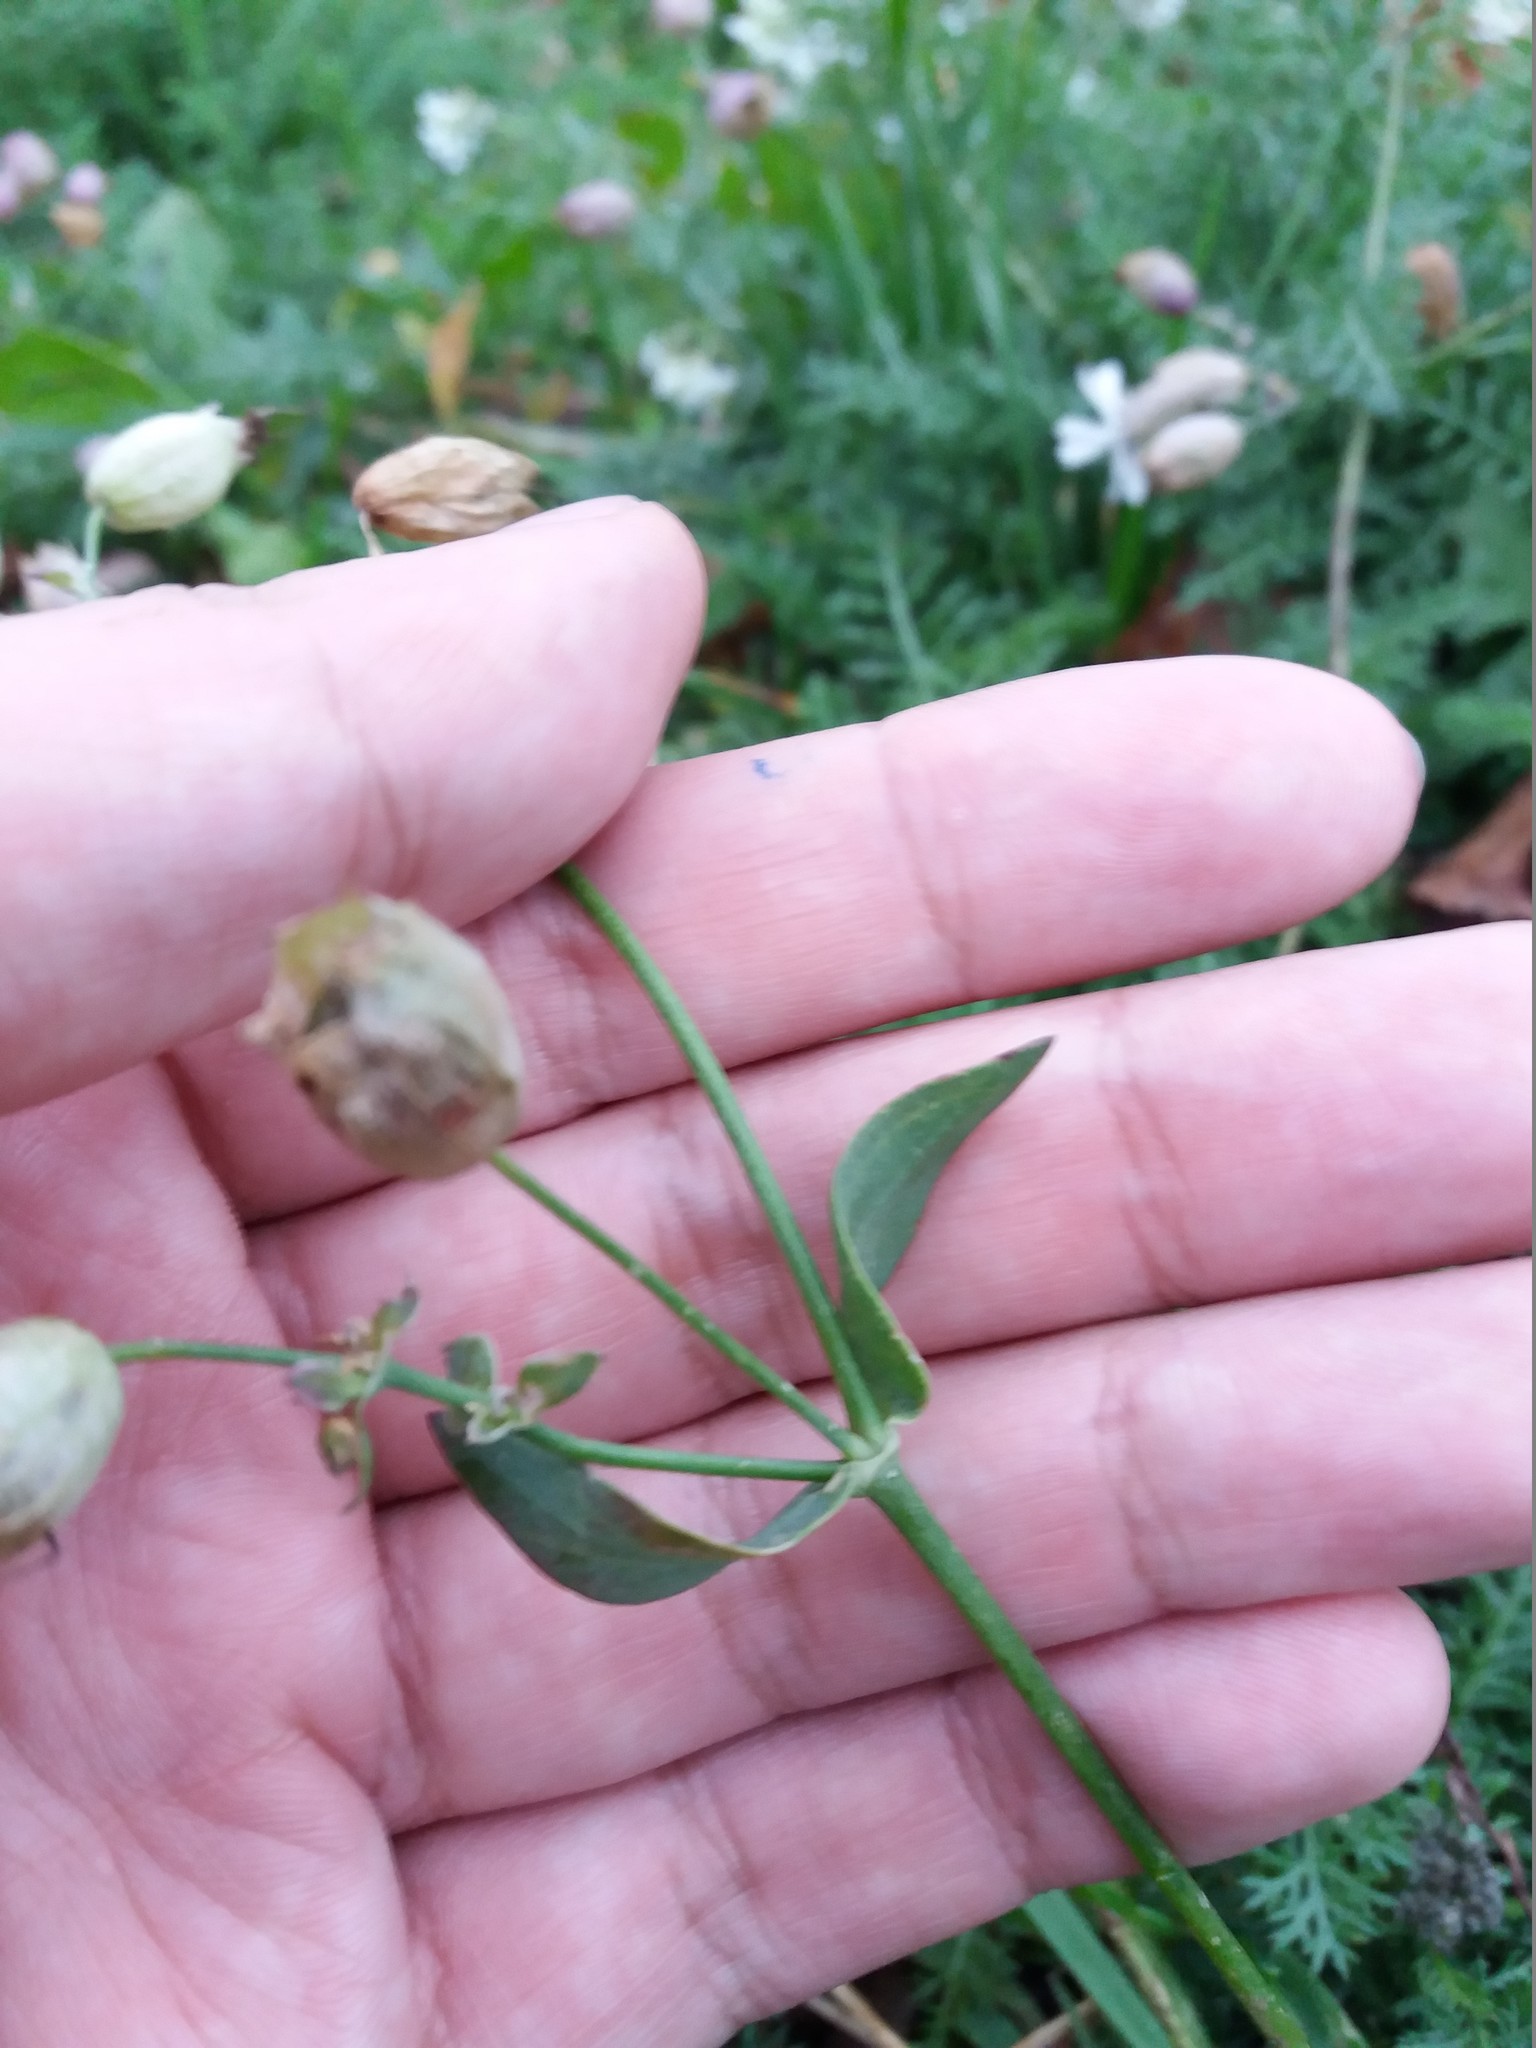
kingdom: Plantae
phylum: Tracheophyta
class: Magnoliopsida
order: Caryophyllales
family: Caryophyllaceae
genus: Silene
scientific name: Silene vulgaris
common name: Bladder campion
